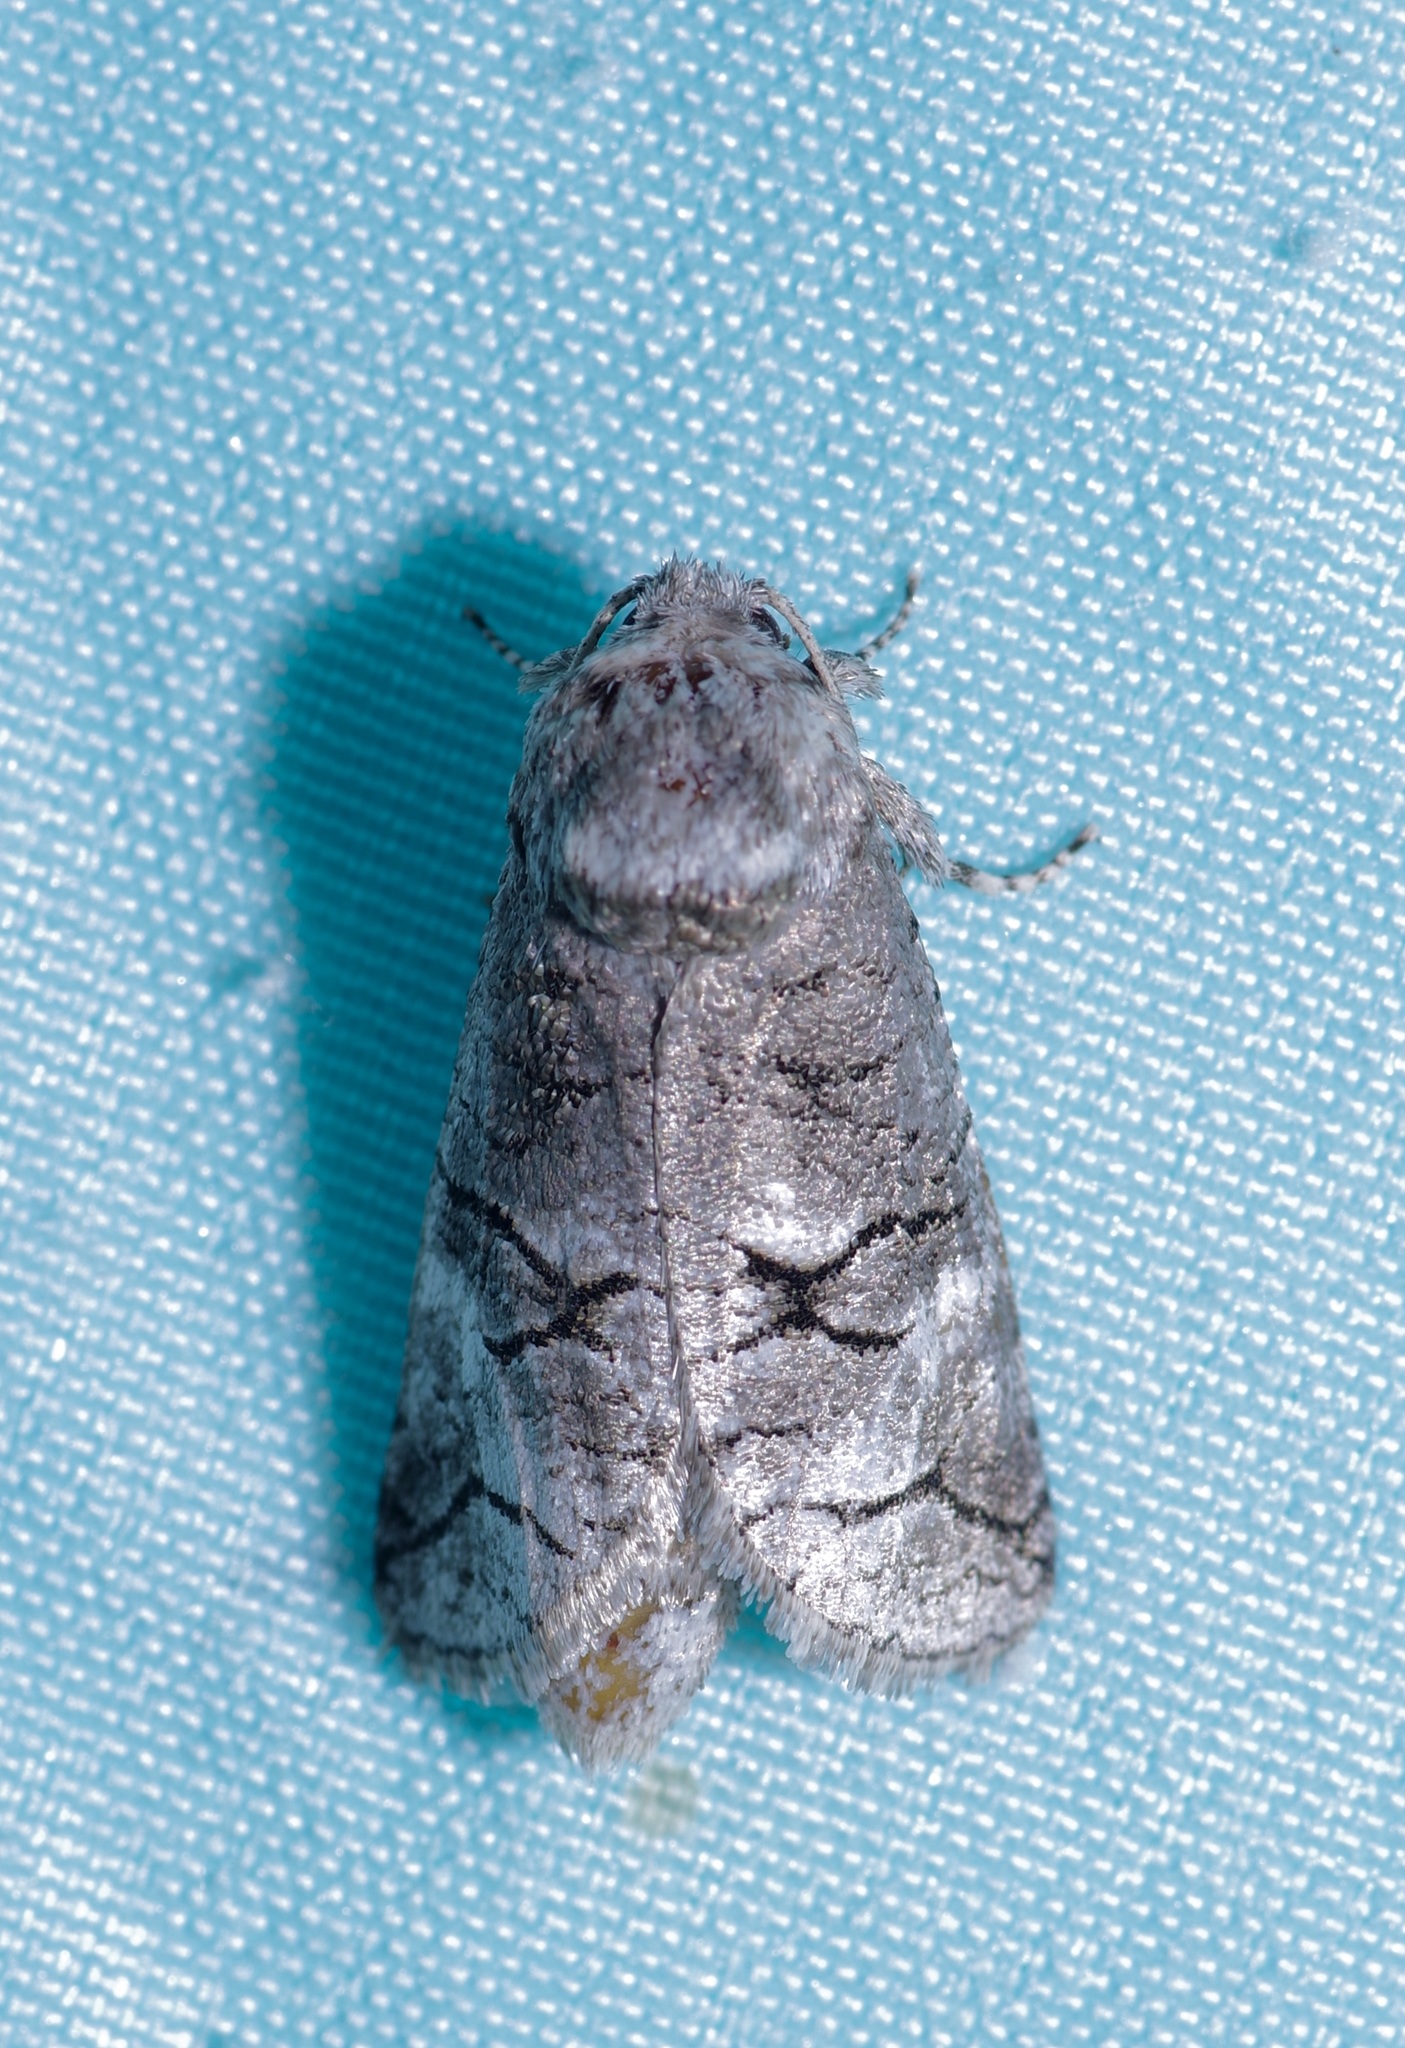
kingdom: Animalia
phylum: Arthropoda
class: Insecta
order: Lepidoptera
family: Cossidae
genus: Fania
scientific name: Fania nanus
